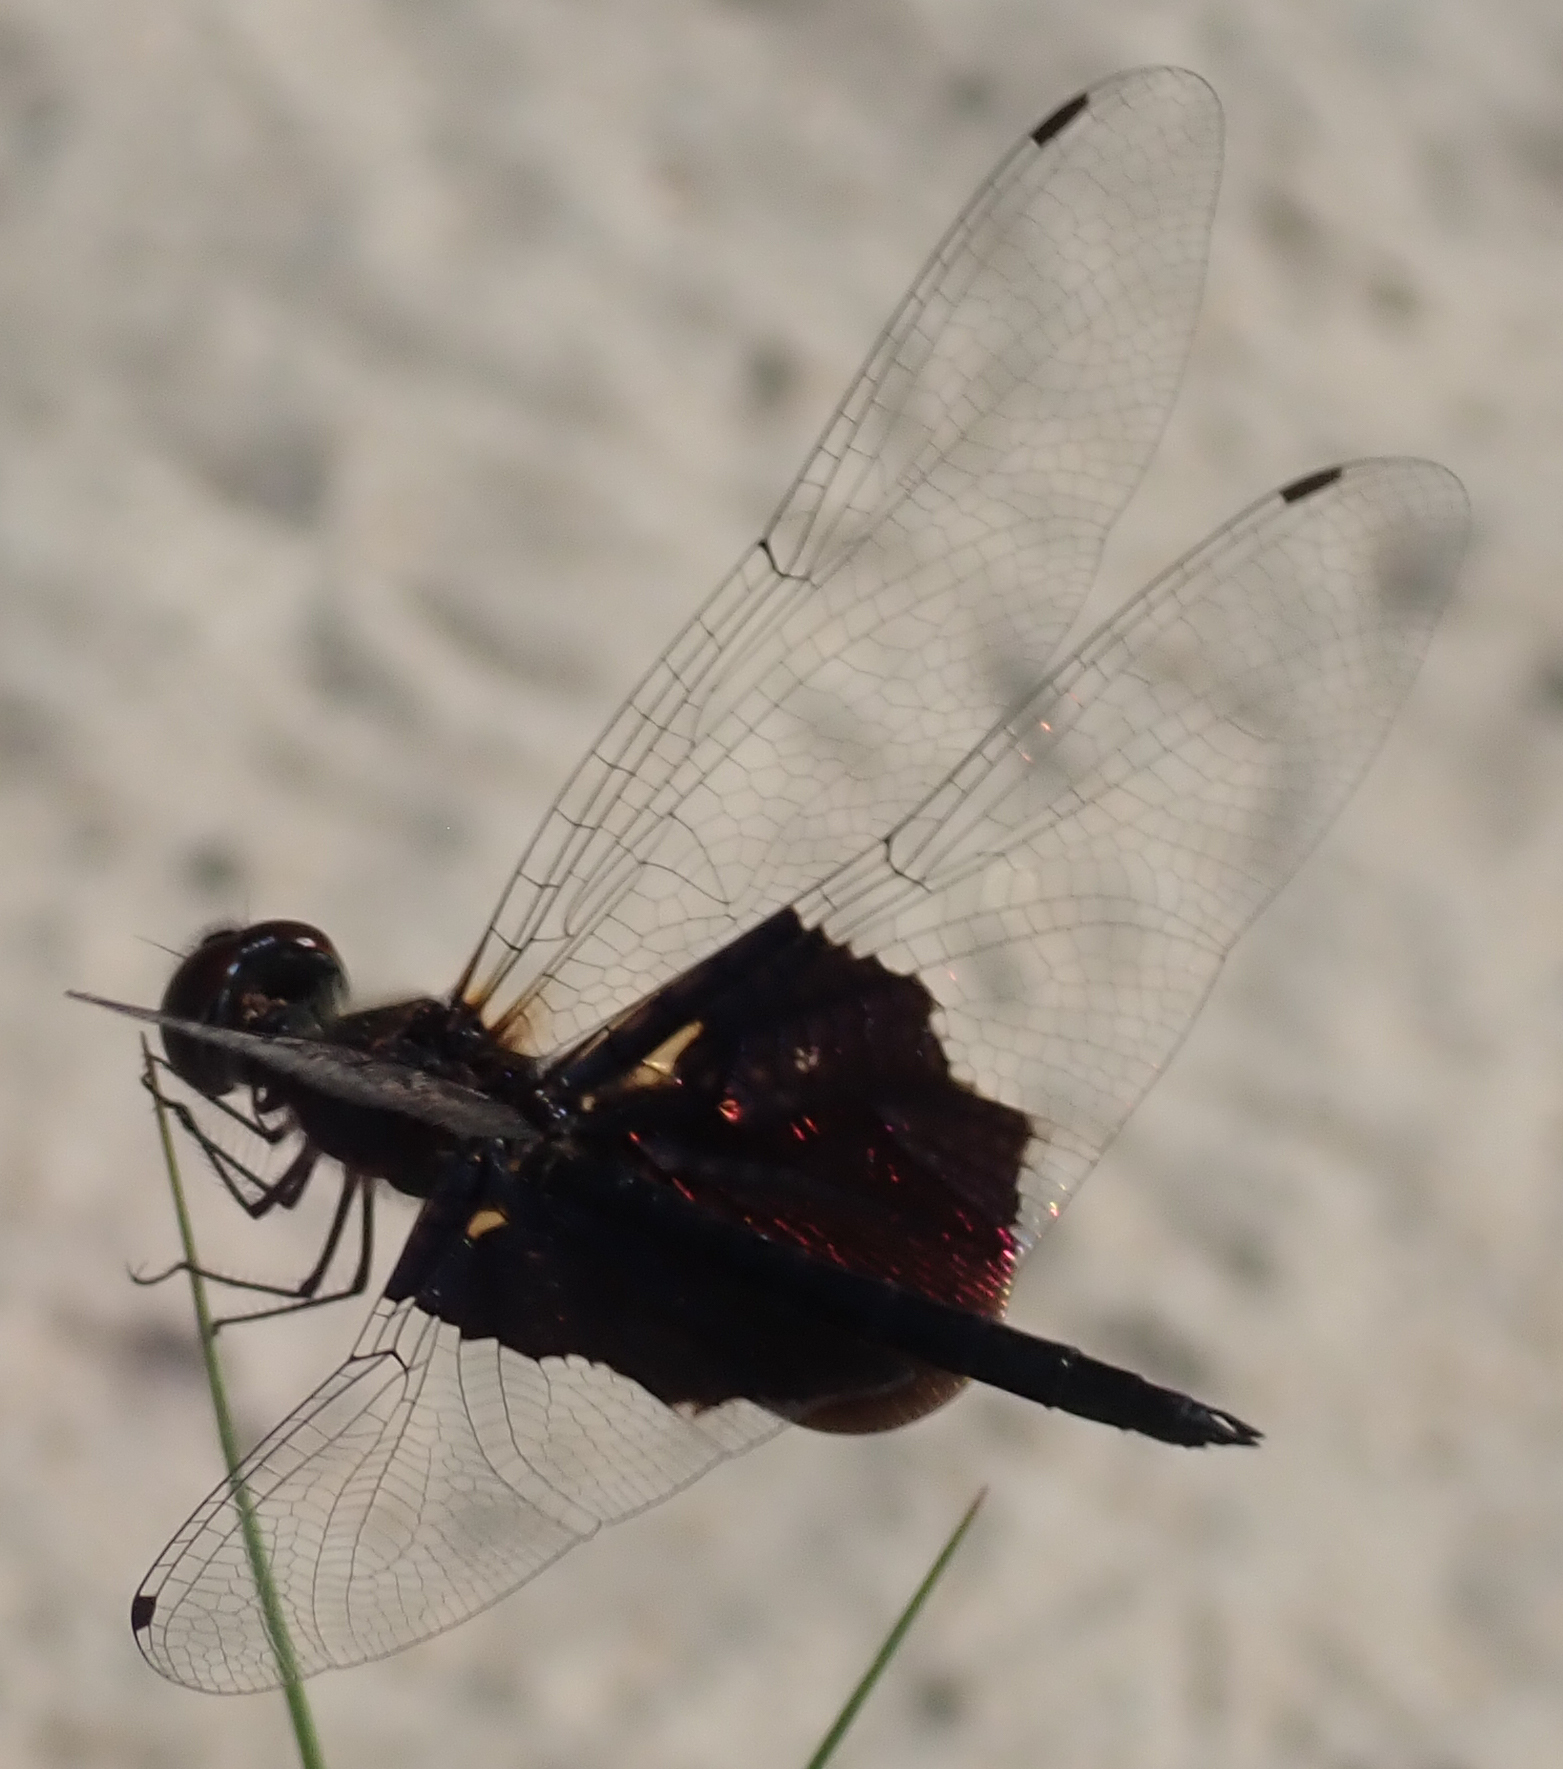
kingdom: Animalia
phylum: Arthropoda
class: Insecta
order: Odonata
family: Libellulidae
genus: Rhyothemis
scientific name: Rhyothemis semihyalina
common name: Phantom flutterer
